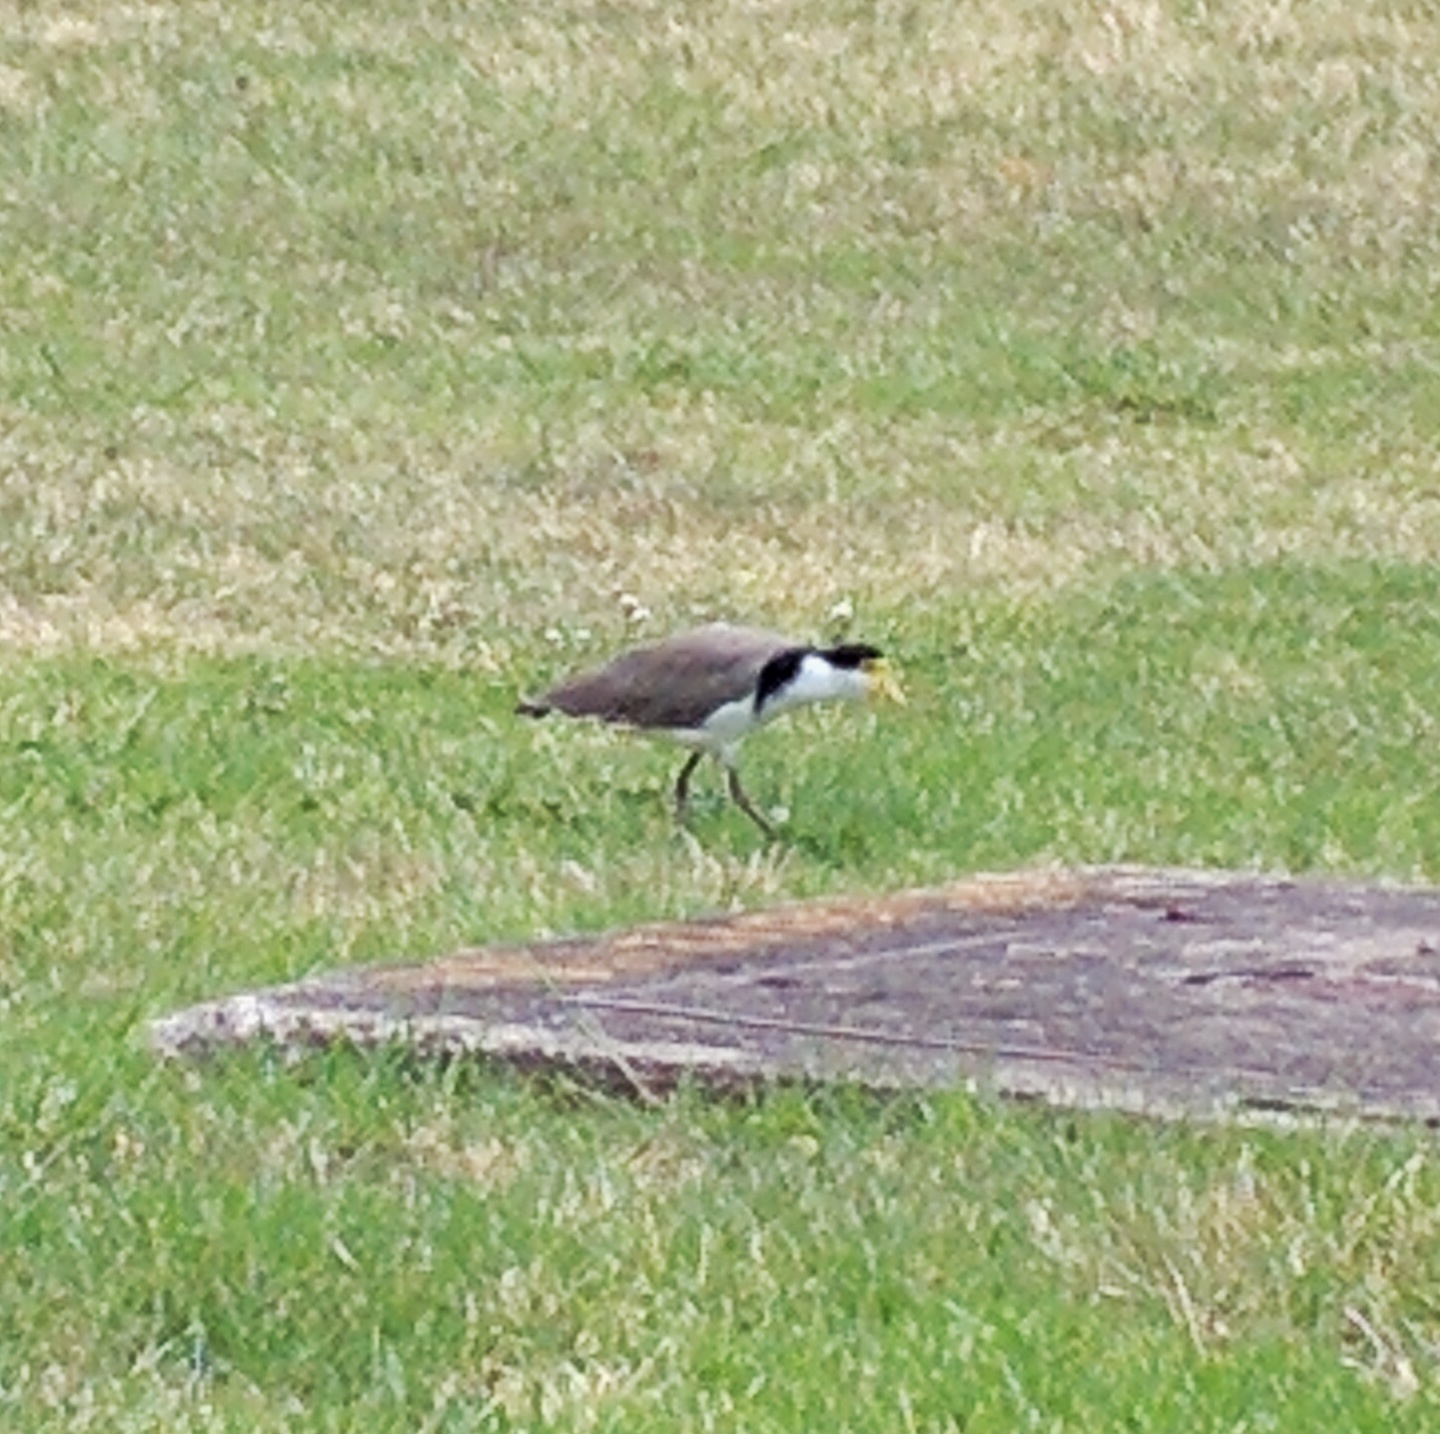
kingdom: Animalia
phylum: Chordata
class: Aves
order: Charadriiformes
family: Charadriidae
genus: Vanellus
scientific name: Vanellus miles
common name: Masked lapwing
